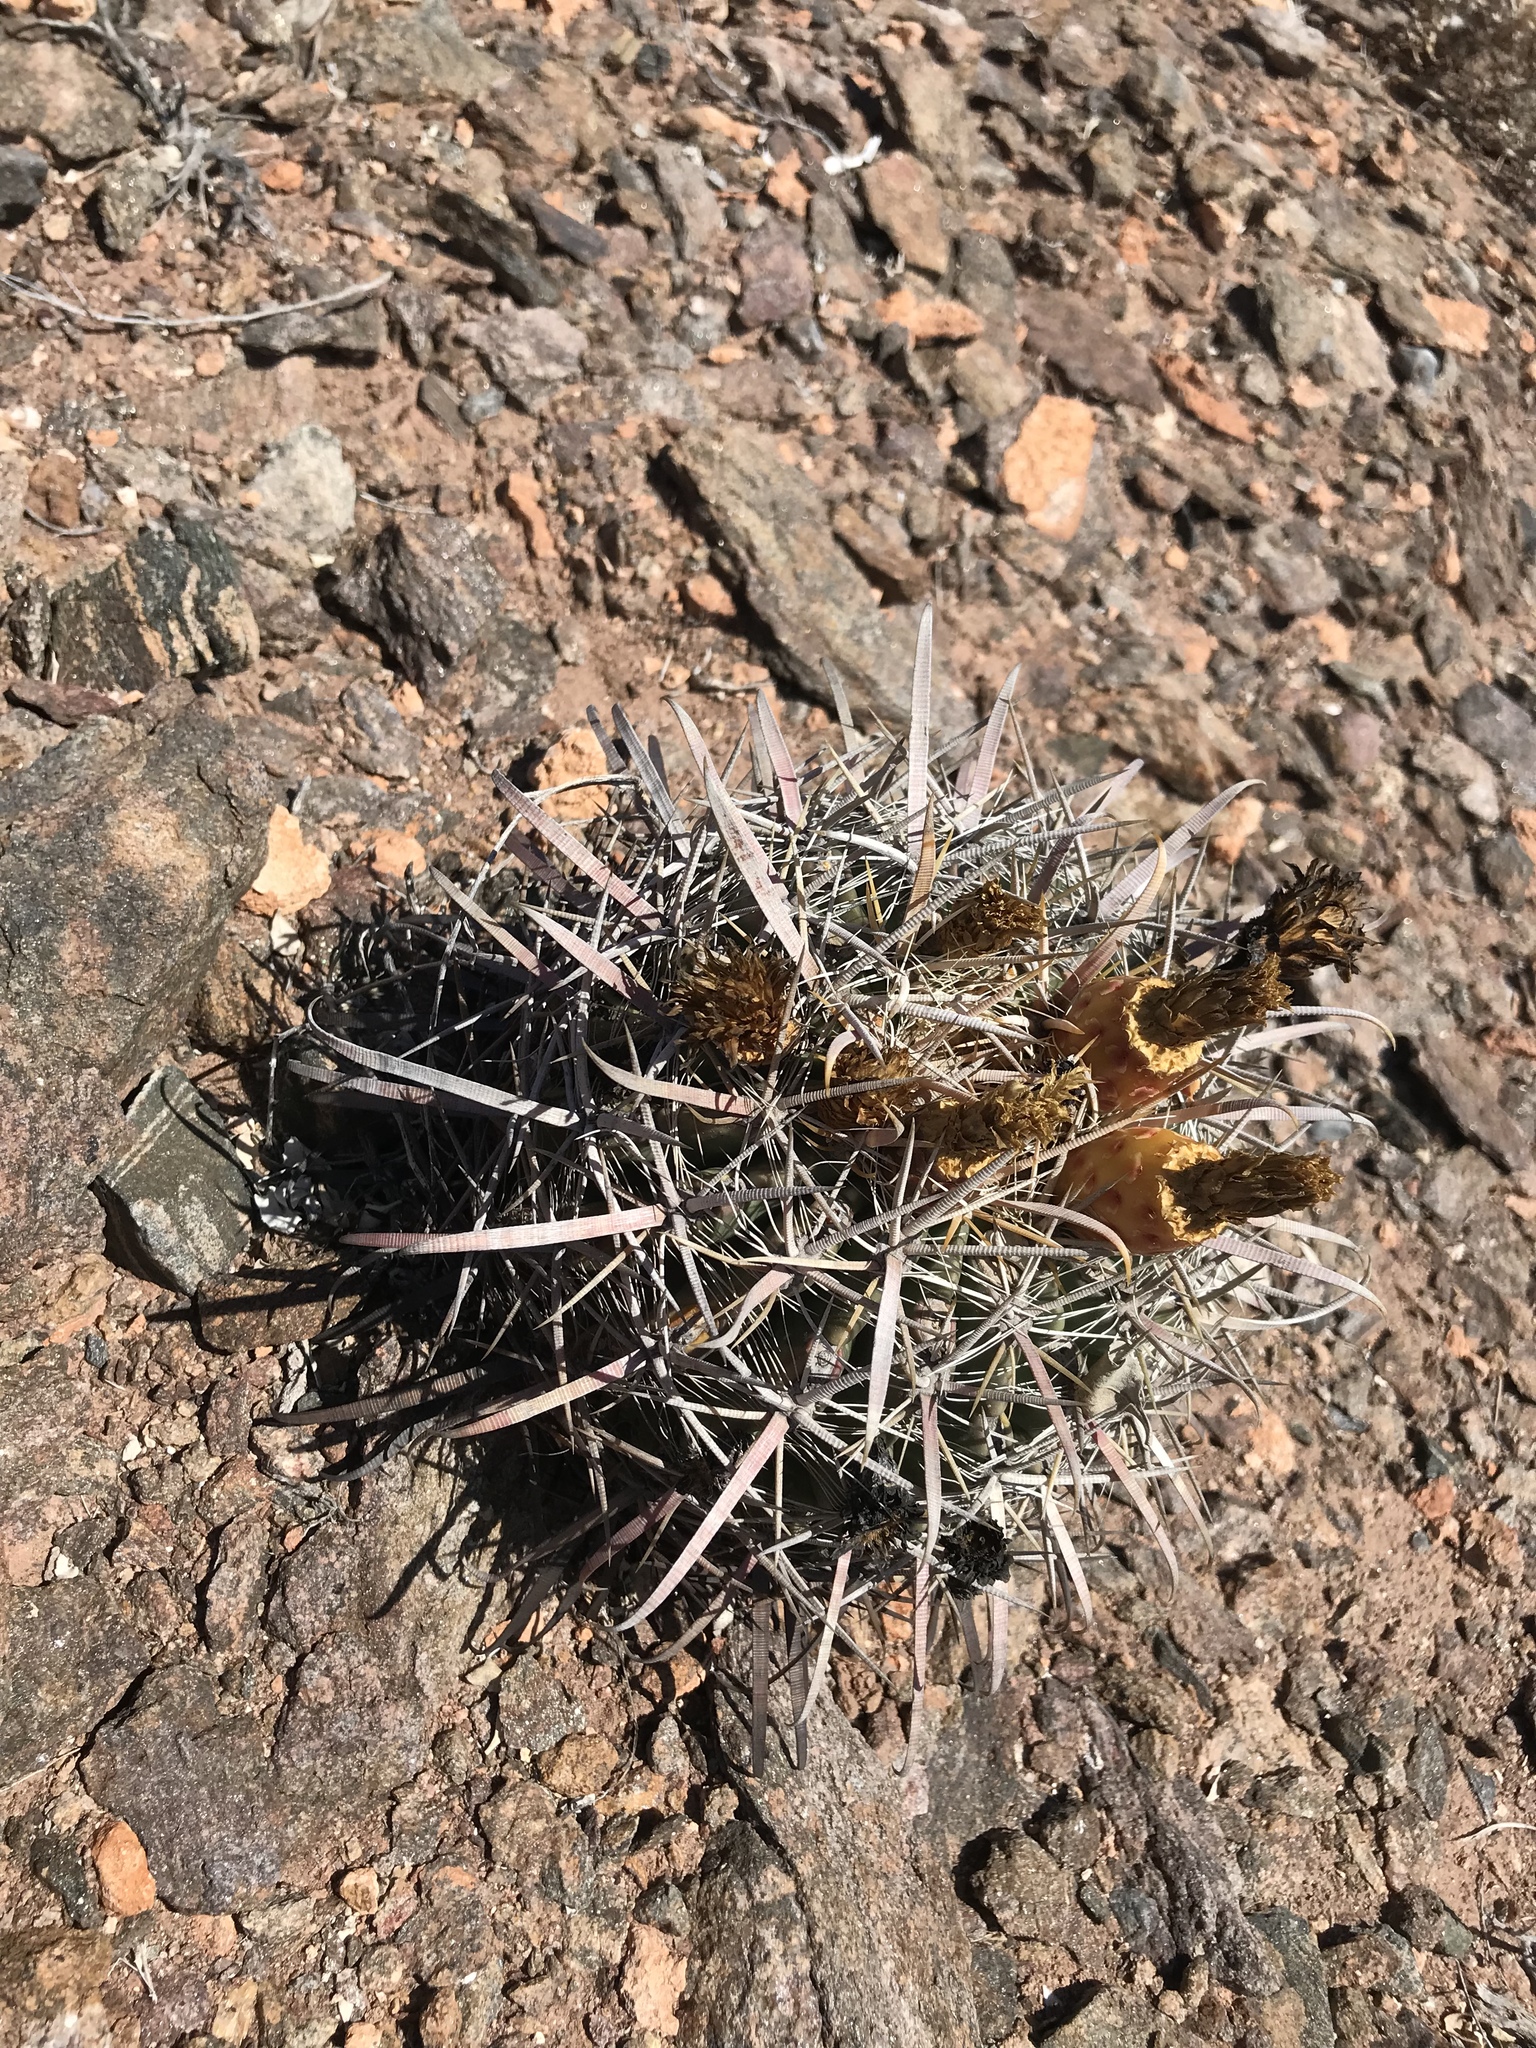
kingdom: Plantae
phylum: Tracheophyta
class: Magnoliopsida
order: Caryophyllales
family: Cactaceae
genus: Ferocactus
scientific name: Ferocactus gracilis
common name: Fire barrel cactus
